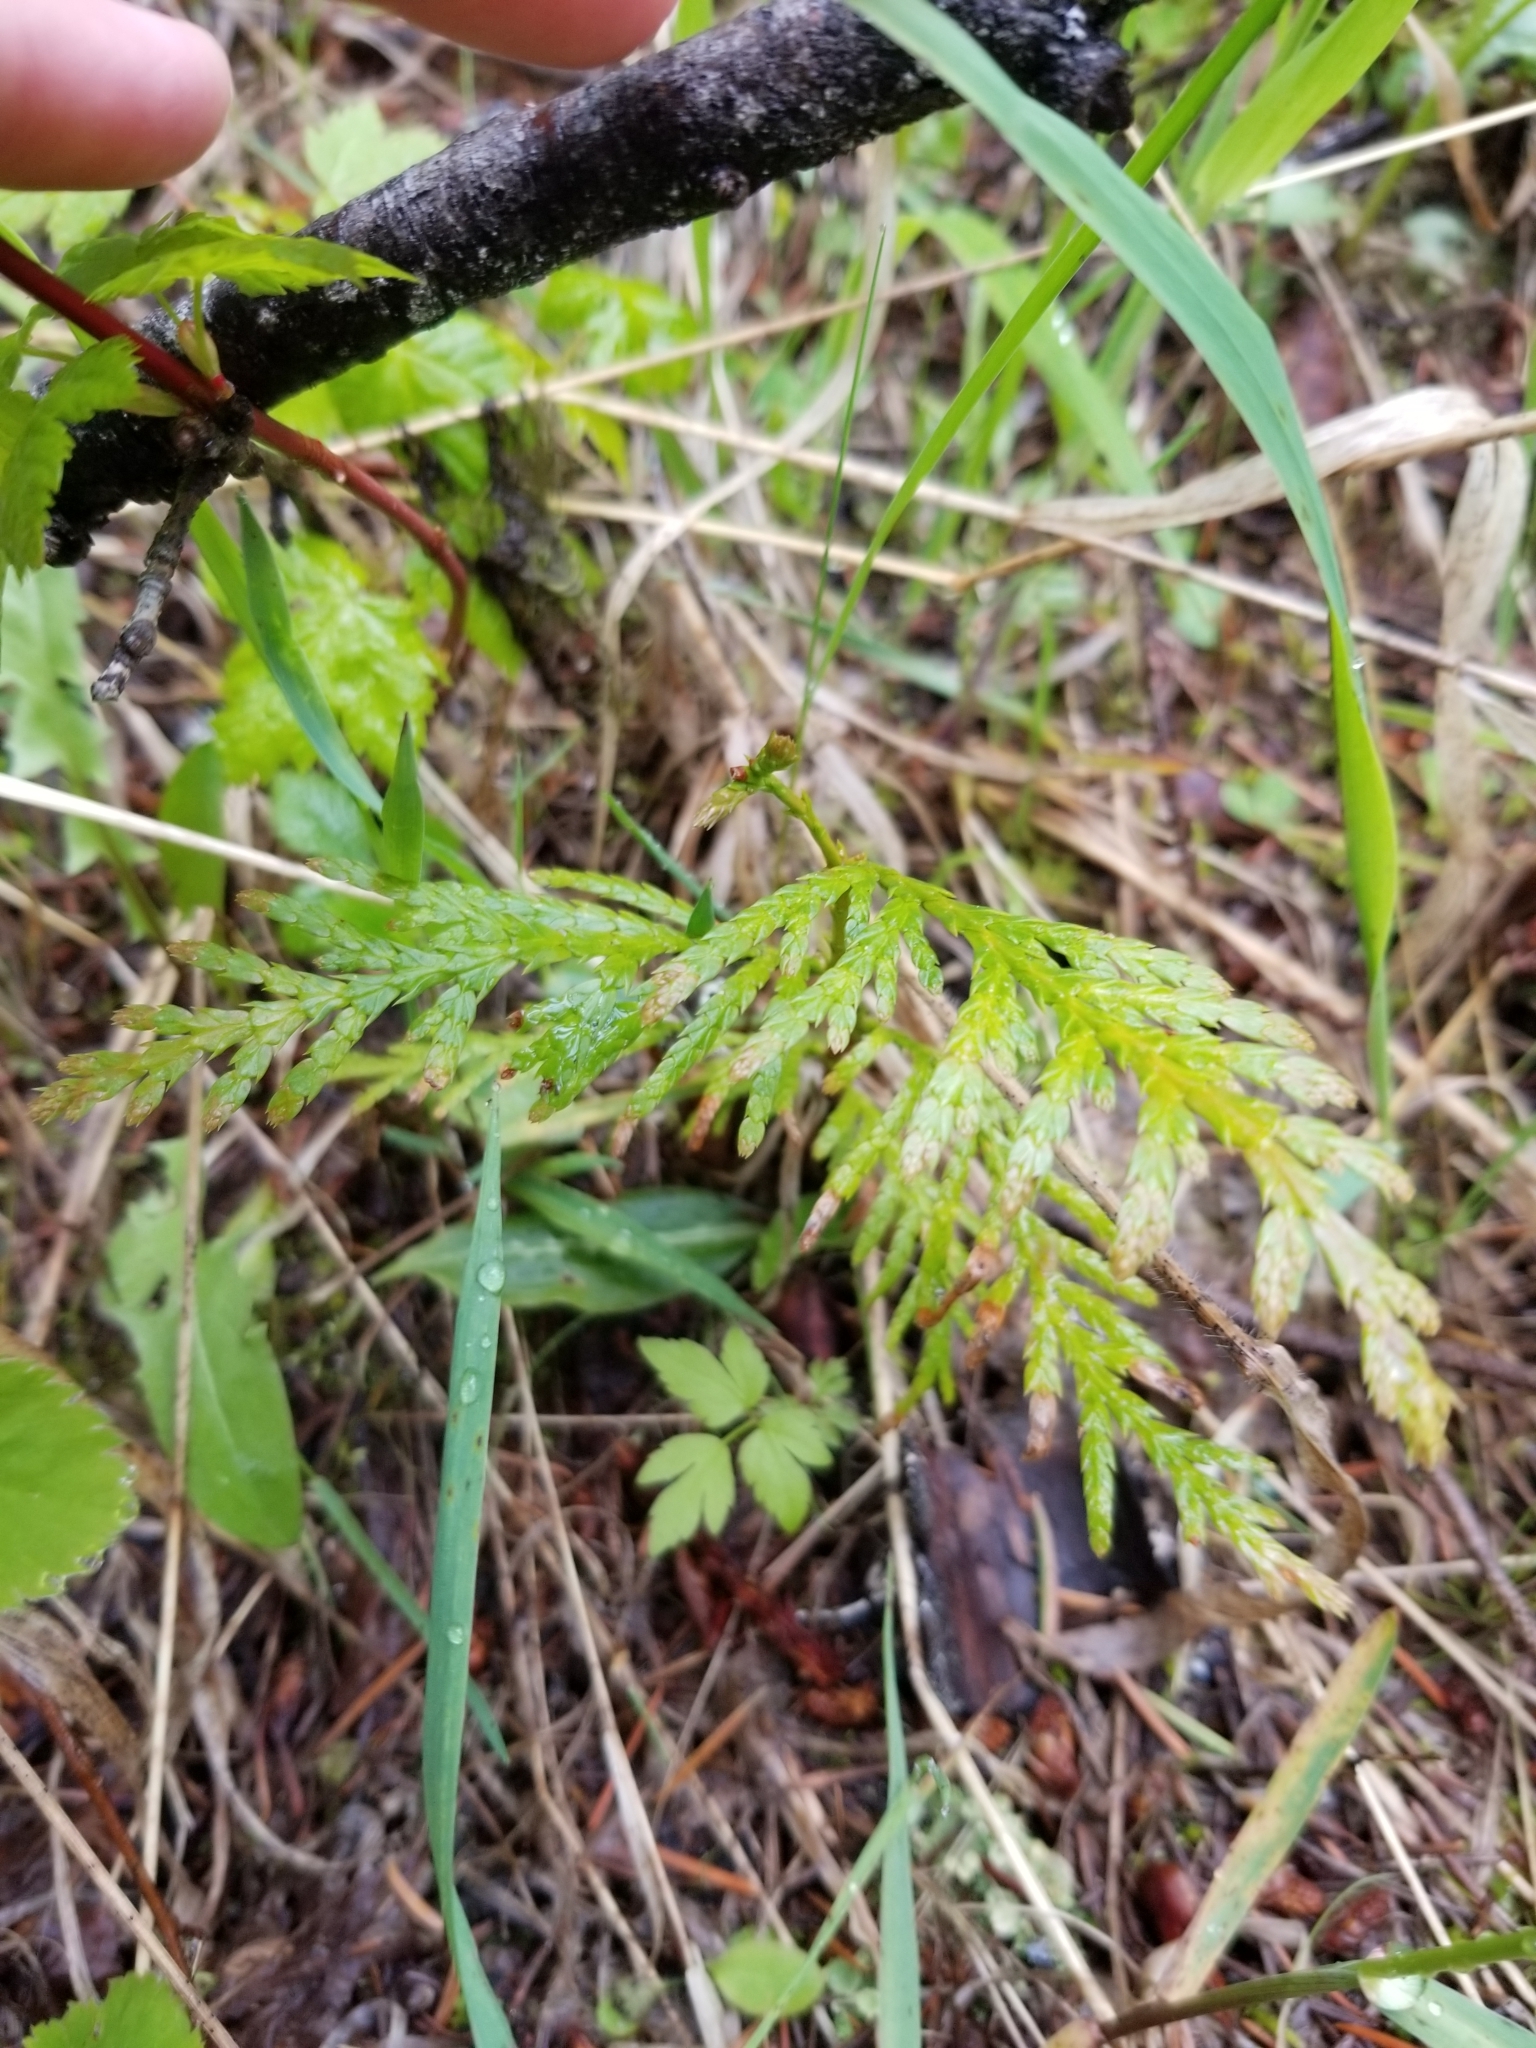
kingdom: Plantae
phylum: Tracheophyta
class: Pinopsida
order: Pinales
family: Cupressaceae
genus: Thuja
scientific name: Thuja plicata
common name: Western red-cedar
